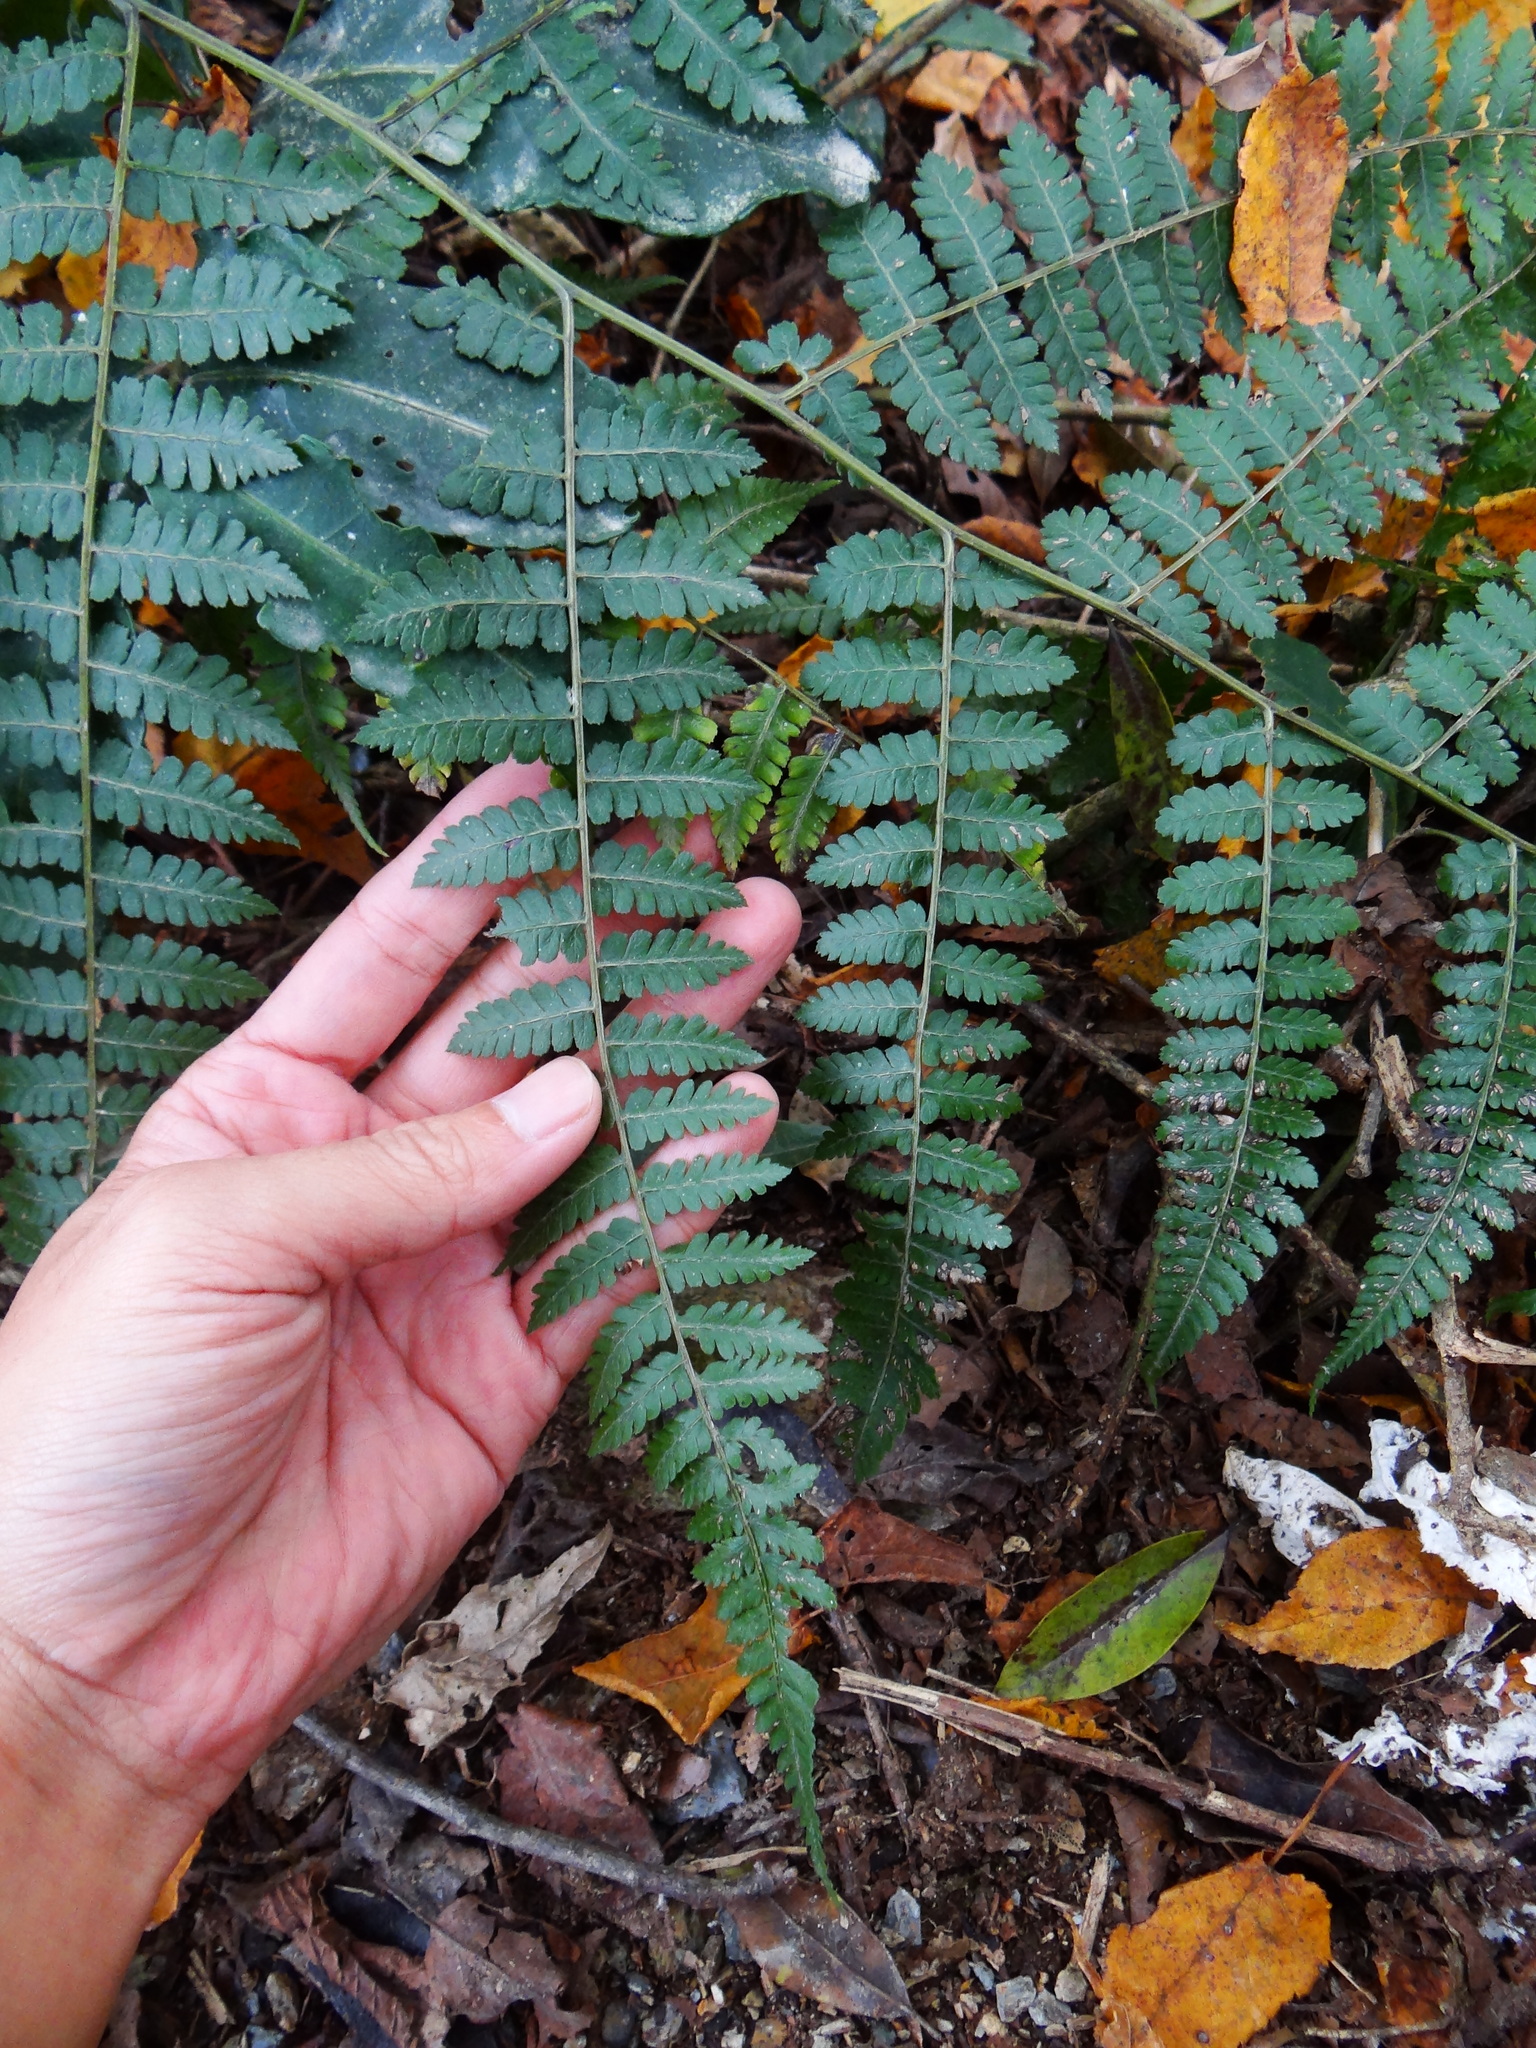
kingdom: Plantae
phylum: Tracheophyta
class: Polypodiopsida
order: Polypodiales
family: Athyriaceae
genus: Diplazium
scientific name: Diplazium kawakamii
